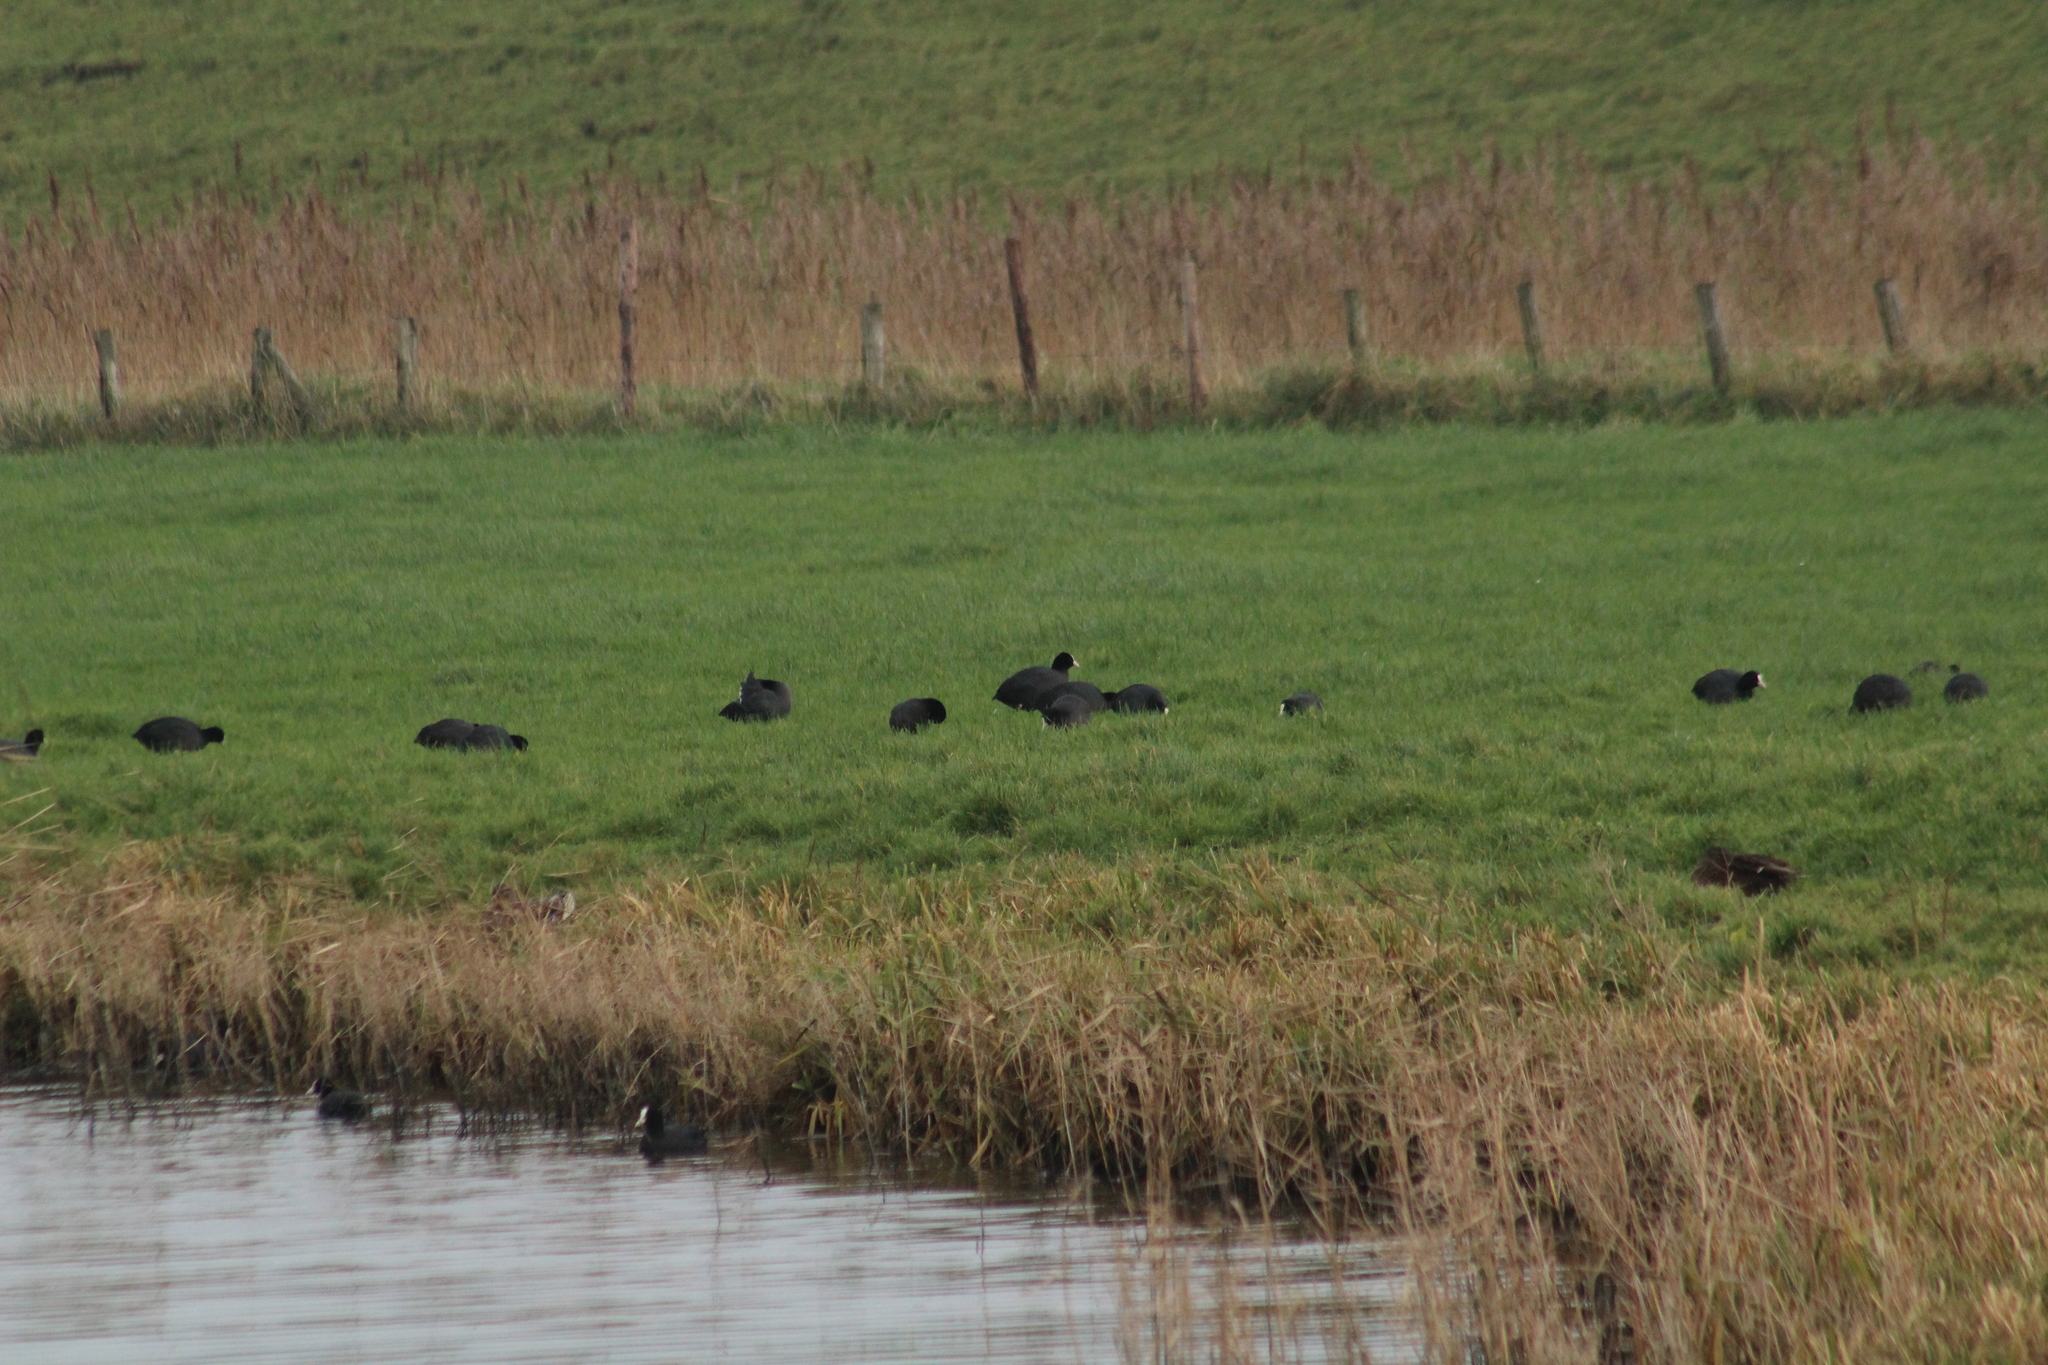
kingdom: Animalia
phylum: Chordata
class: Aves
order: Gruiformes
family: Rallidae
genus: Fulica
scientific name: Fulica atra
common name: Eurasian coot
